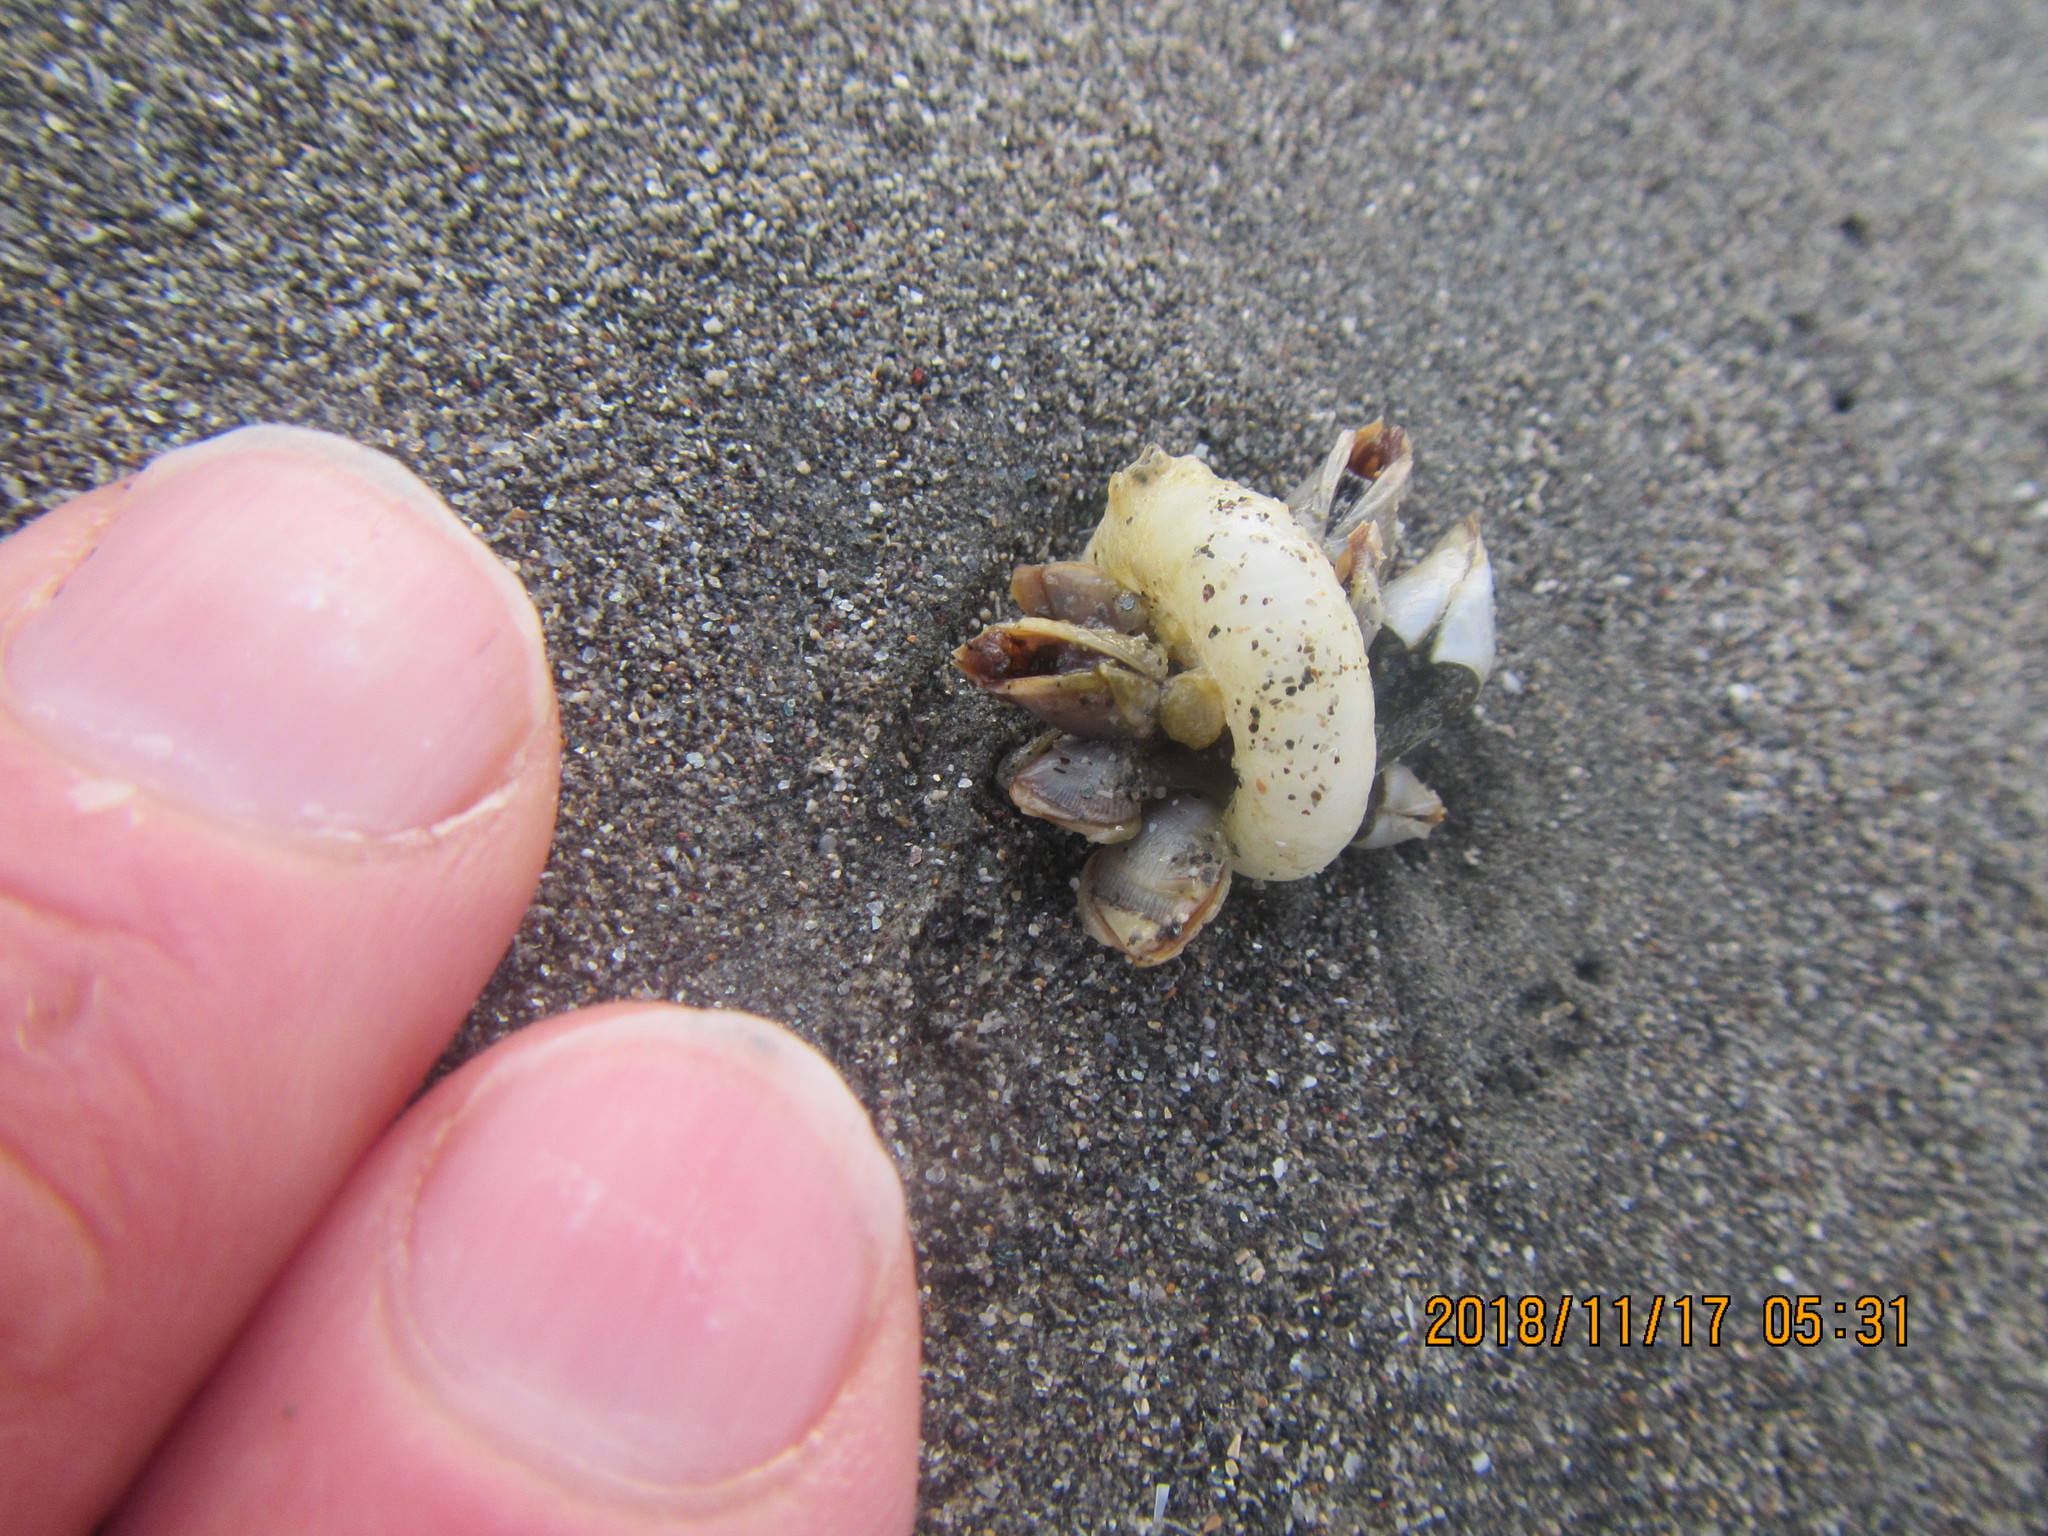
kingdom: Animalia
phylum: Mollusca
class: Cephalopoda
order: Spirulida
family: Spirulidae
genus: Spirula
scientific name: Spirula spirula
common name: Ram's horn squid
